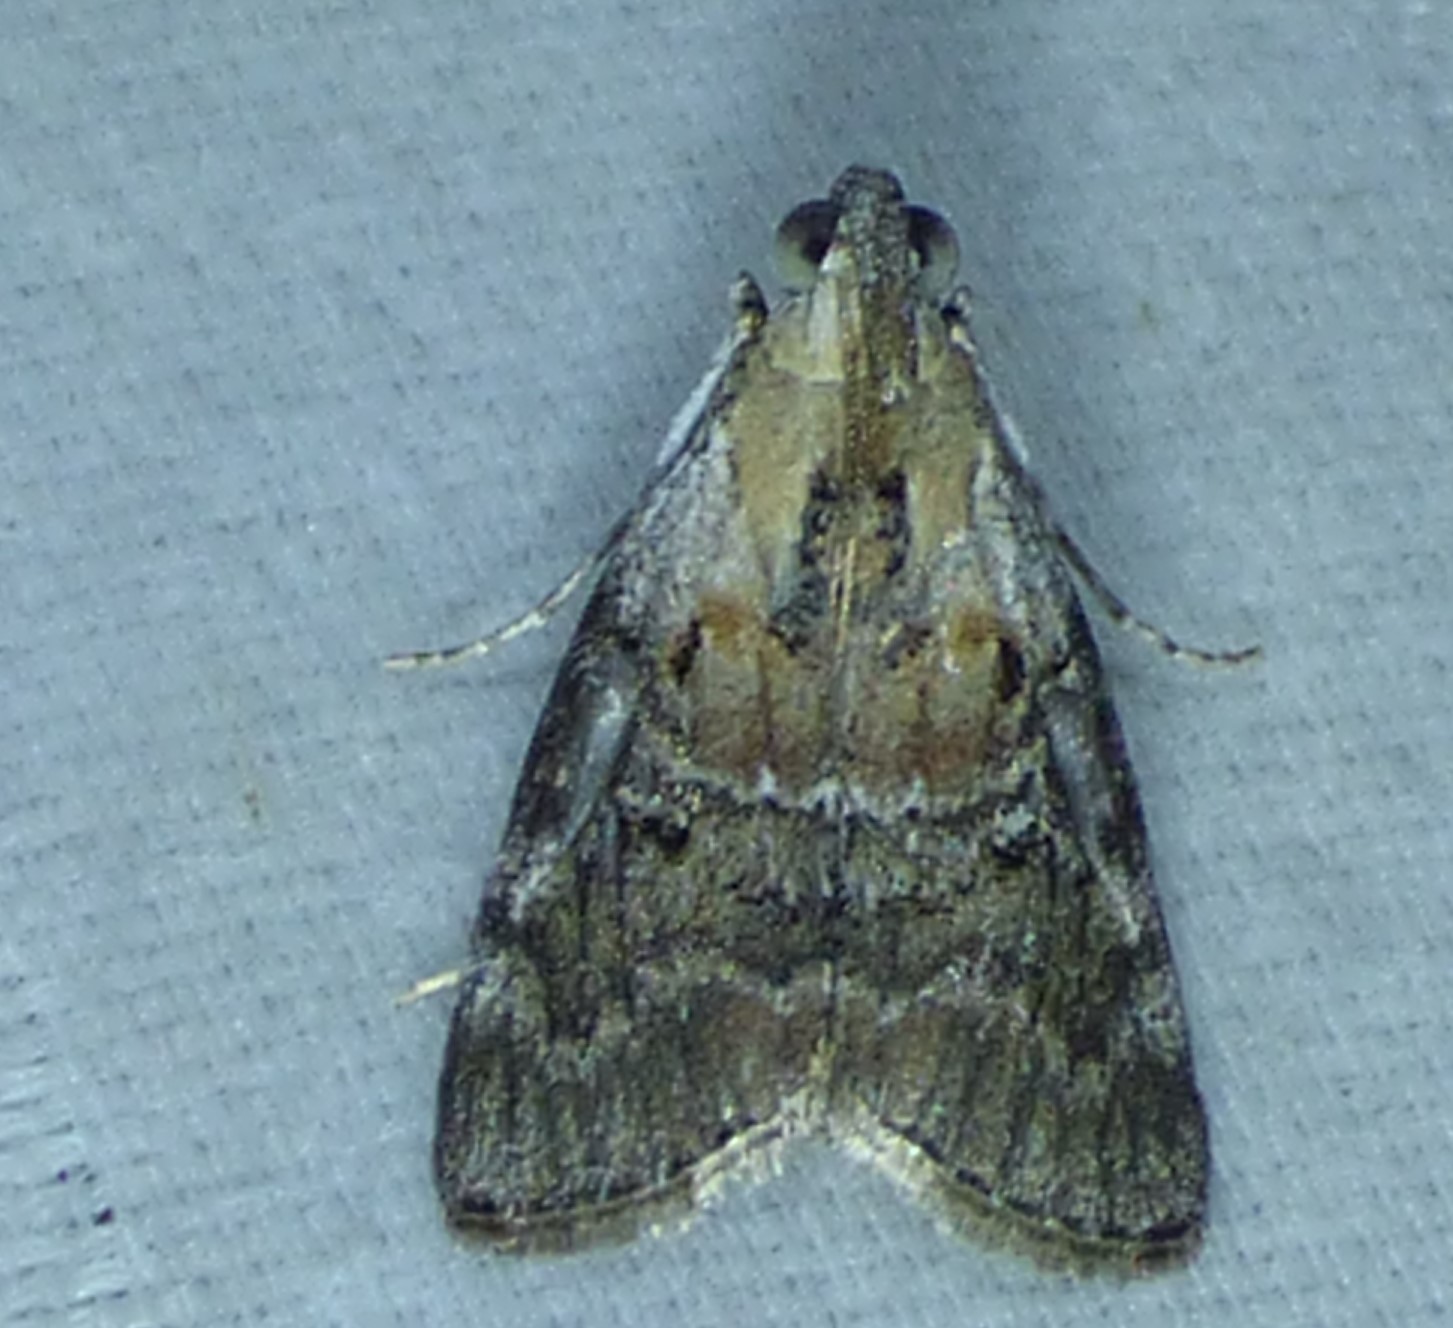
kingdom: Animalia
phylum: Arthropoda
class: Insecta
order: Lepidoptera
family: Pyralidae
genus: Pococera
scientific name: Pococera expandens
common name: Striped oak webworm moth
